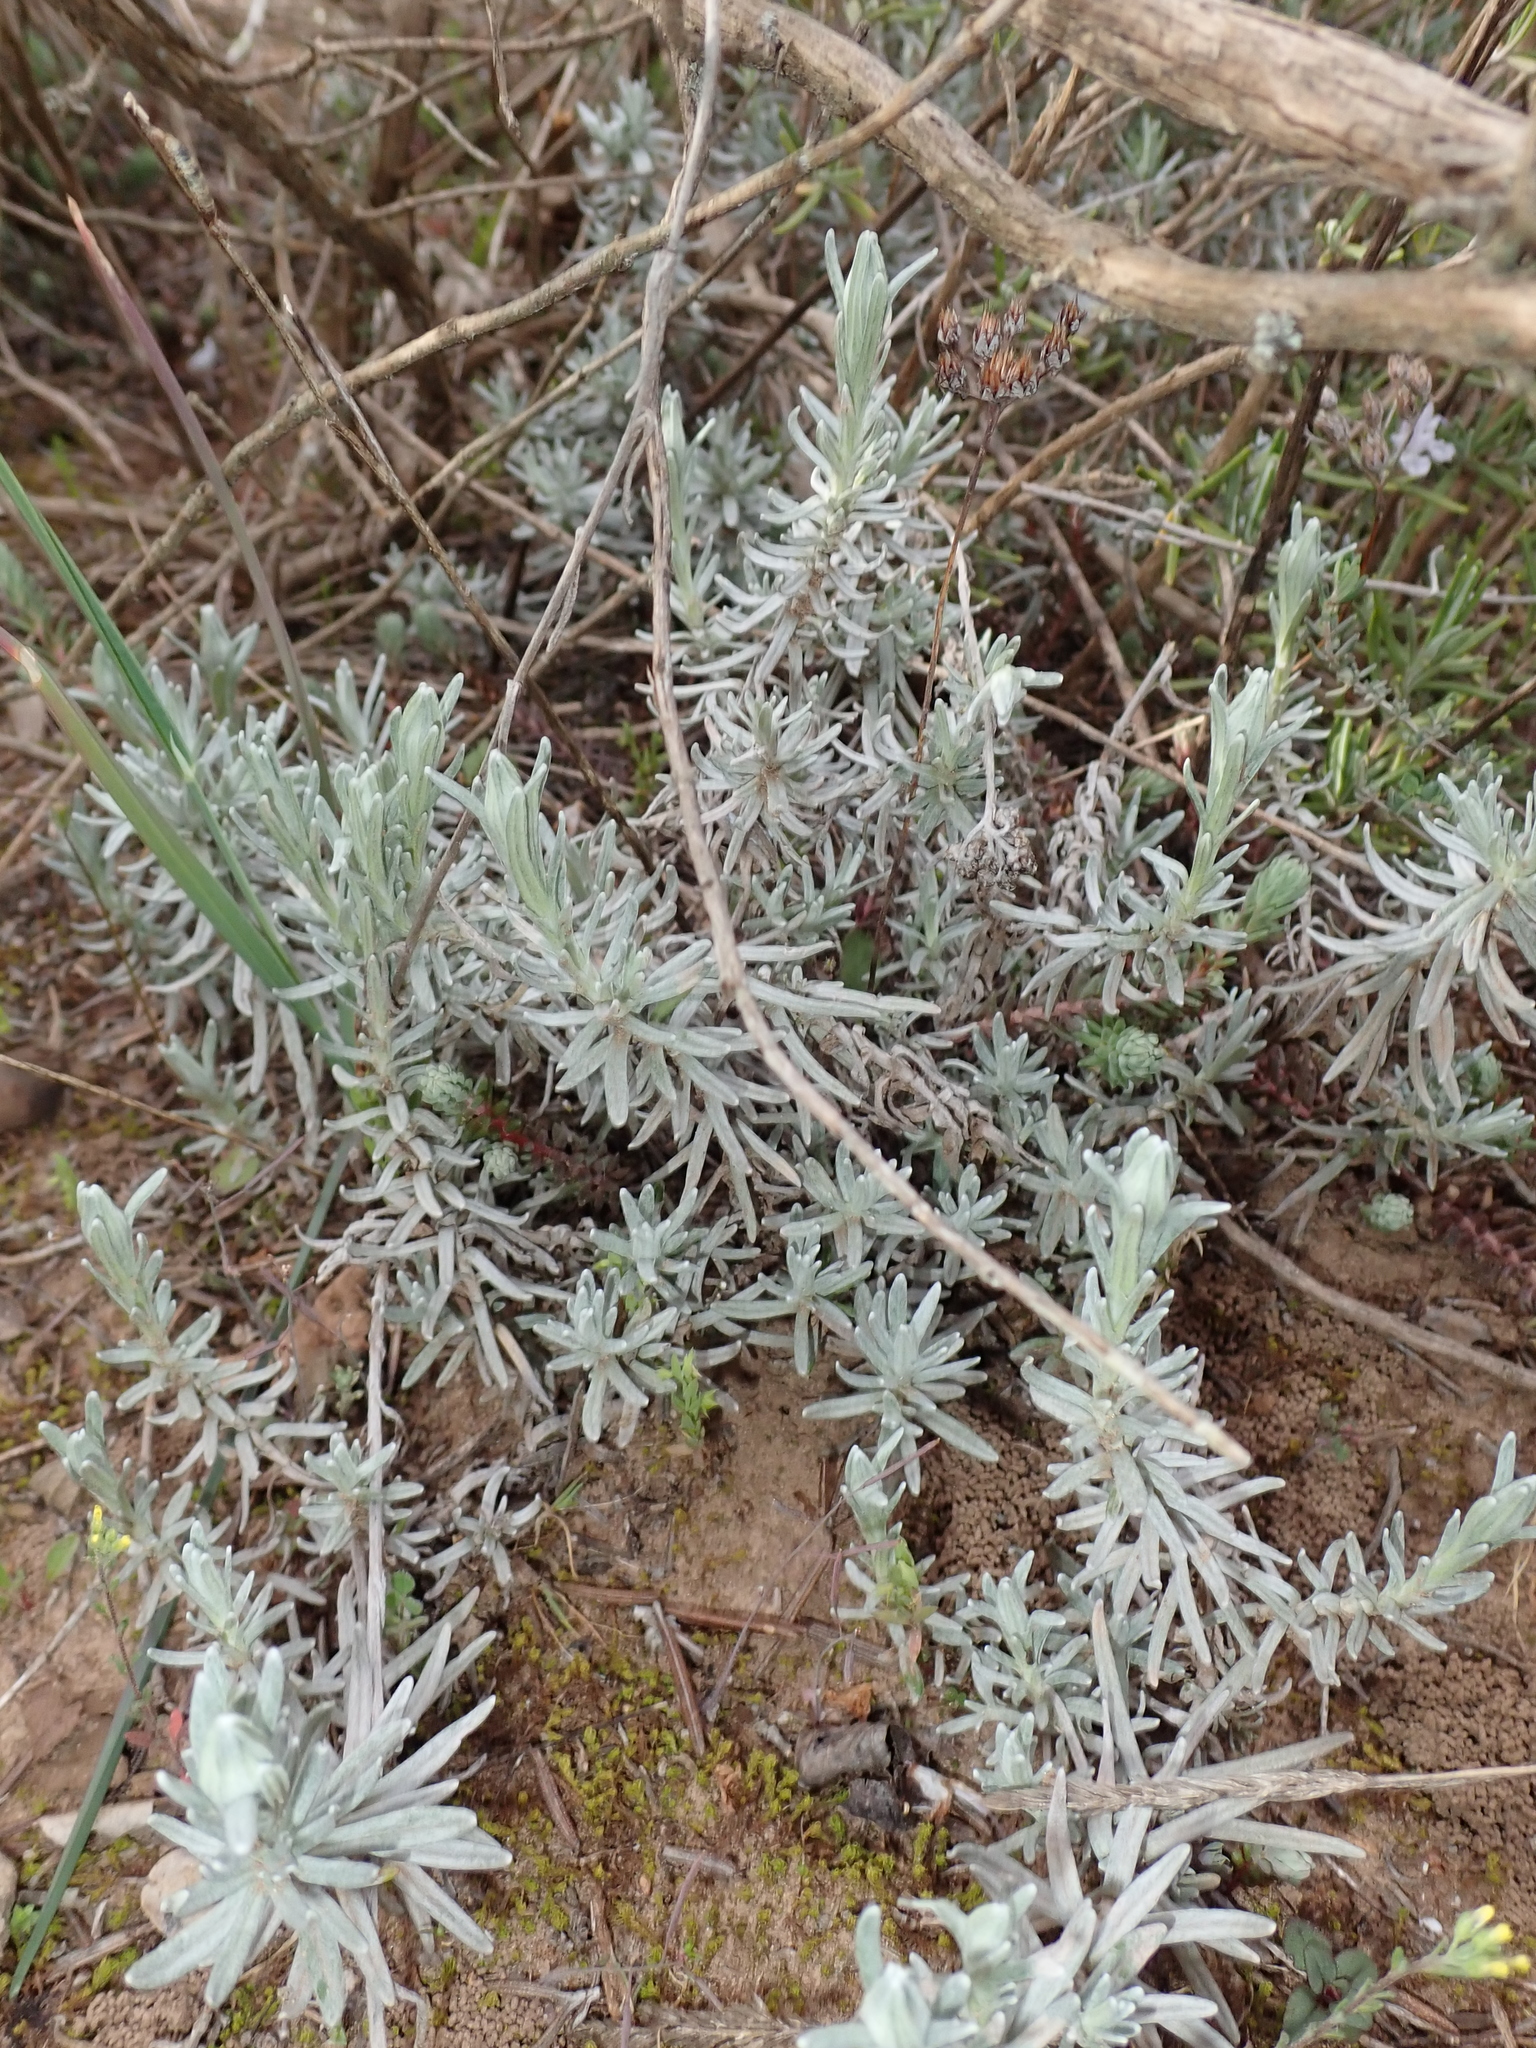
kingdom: Plantae
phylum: Tracheophyta
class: Magnoliopsida
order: Asterales
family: Asteraceae
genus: Helichrysum
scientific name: Helichrysum stoechas
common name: Goldilocks
